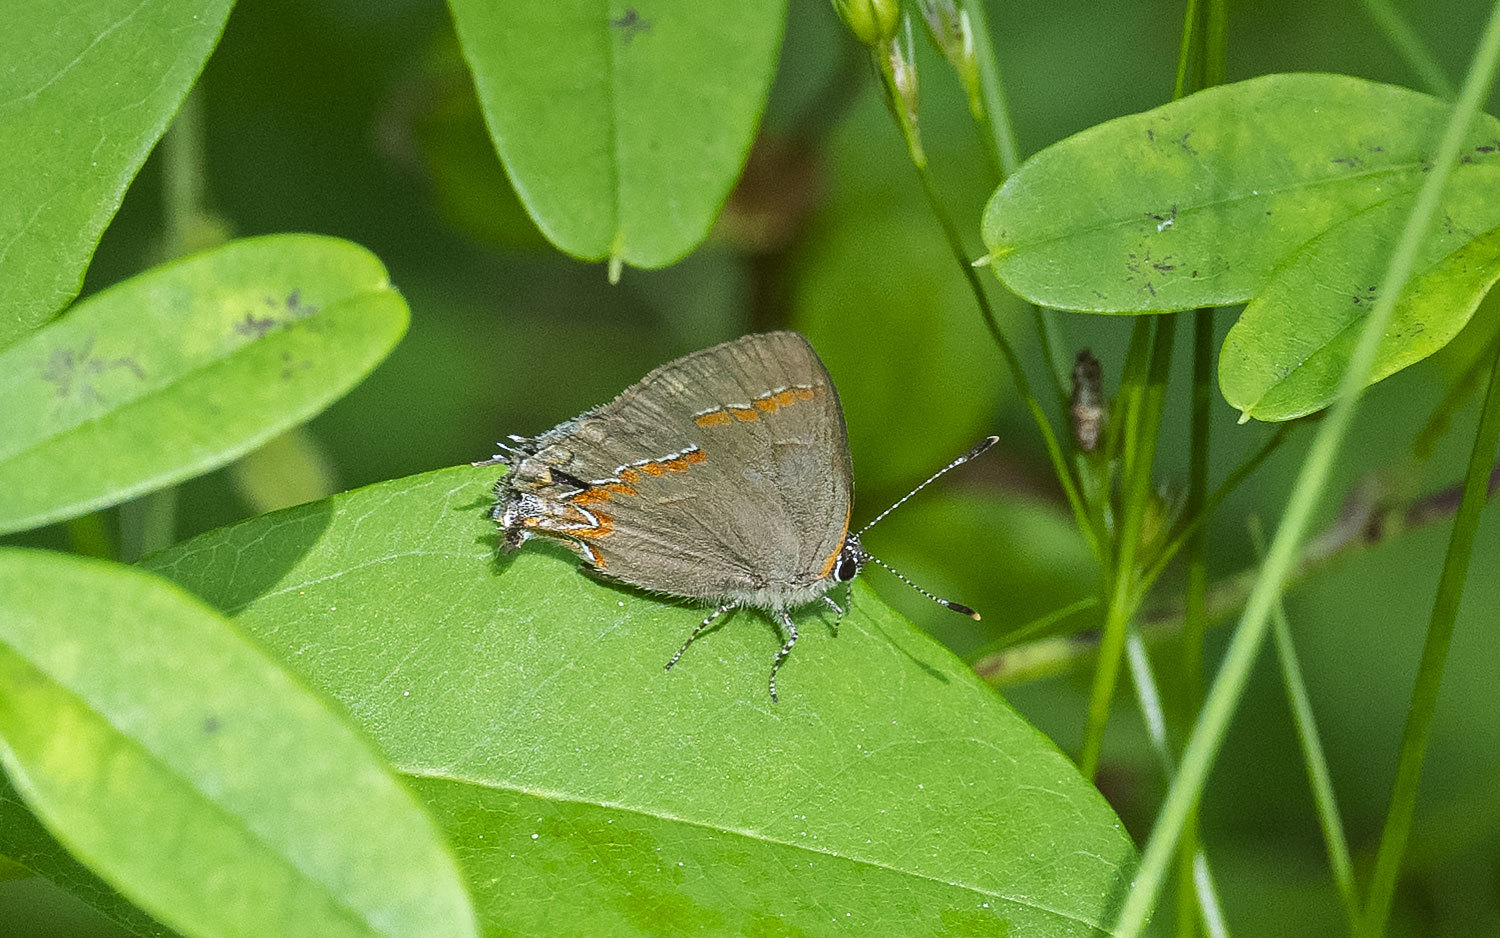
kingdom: Animalia
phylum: Arthropoda
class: Insecta
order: Lepidoptera
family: Lycaenidae
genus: Calycopis
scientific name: Calycopis cecrops
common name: Red-banded hairstreak
